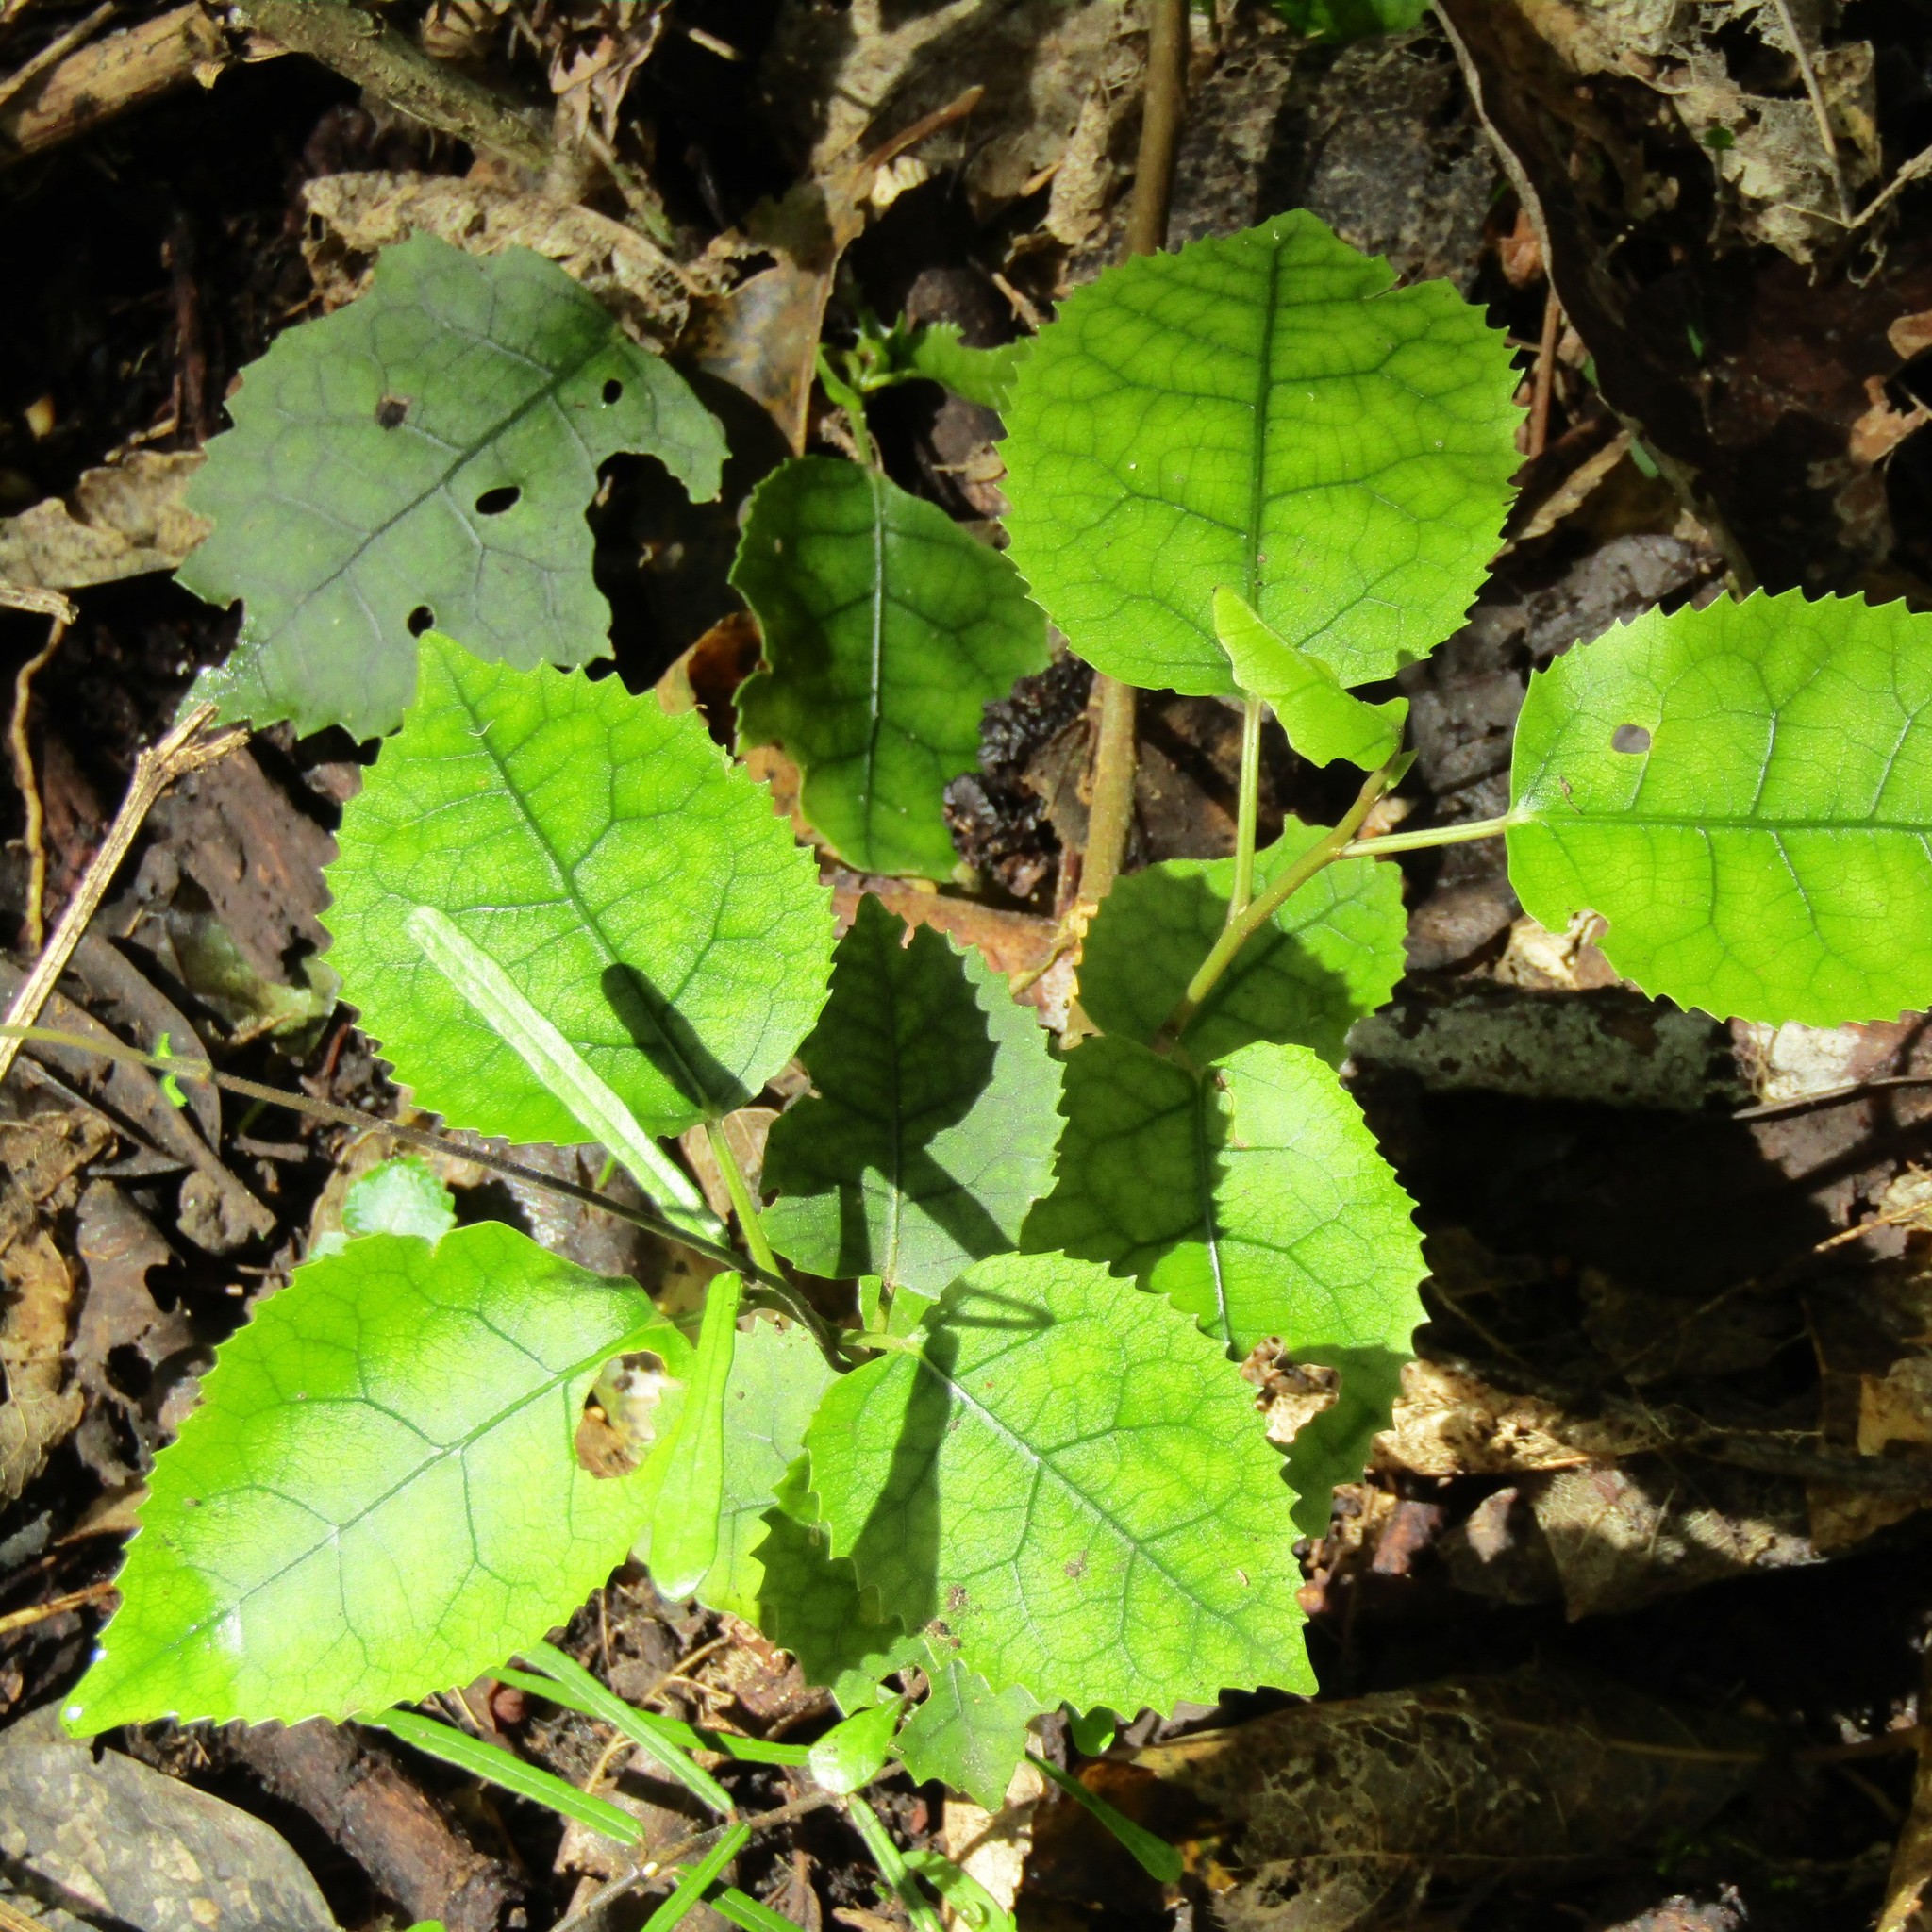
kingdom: Plantae
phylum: Tracheophyta
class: Magnoliopsida
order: Malvales
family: Malvaceae
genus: Hoheria
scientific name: Hoheria populnea
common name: Lacebark
